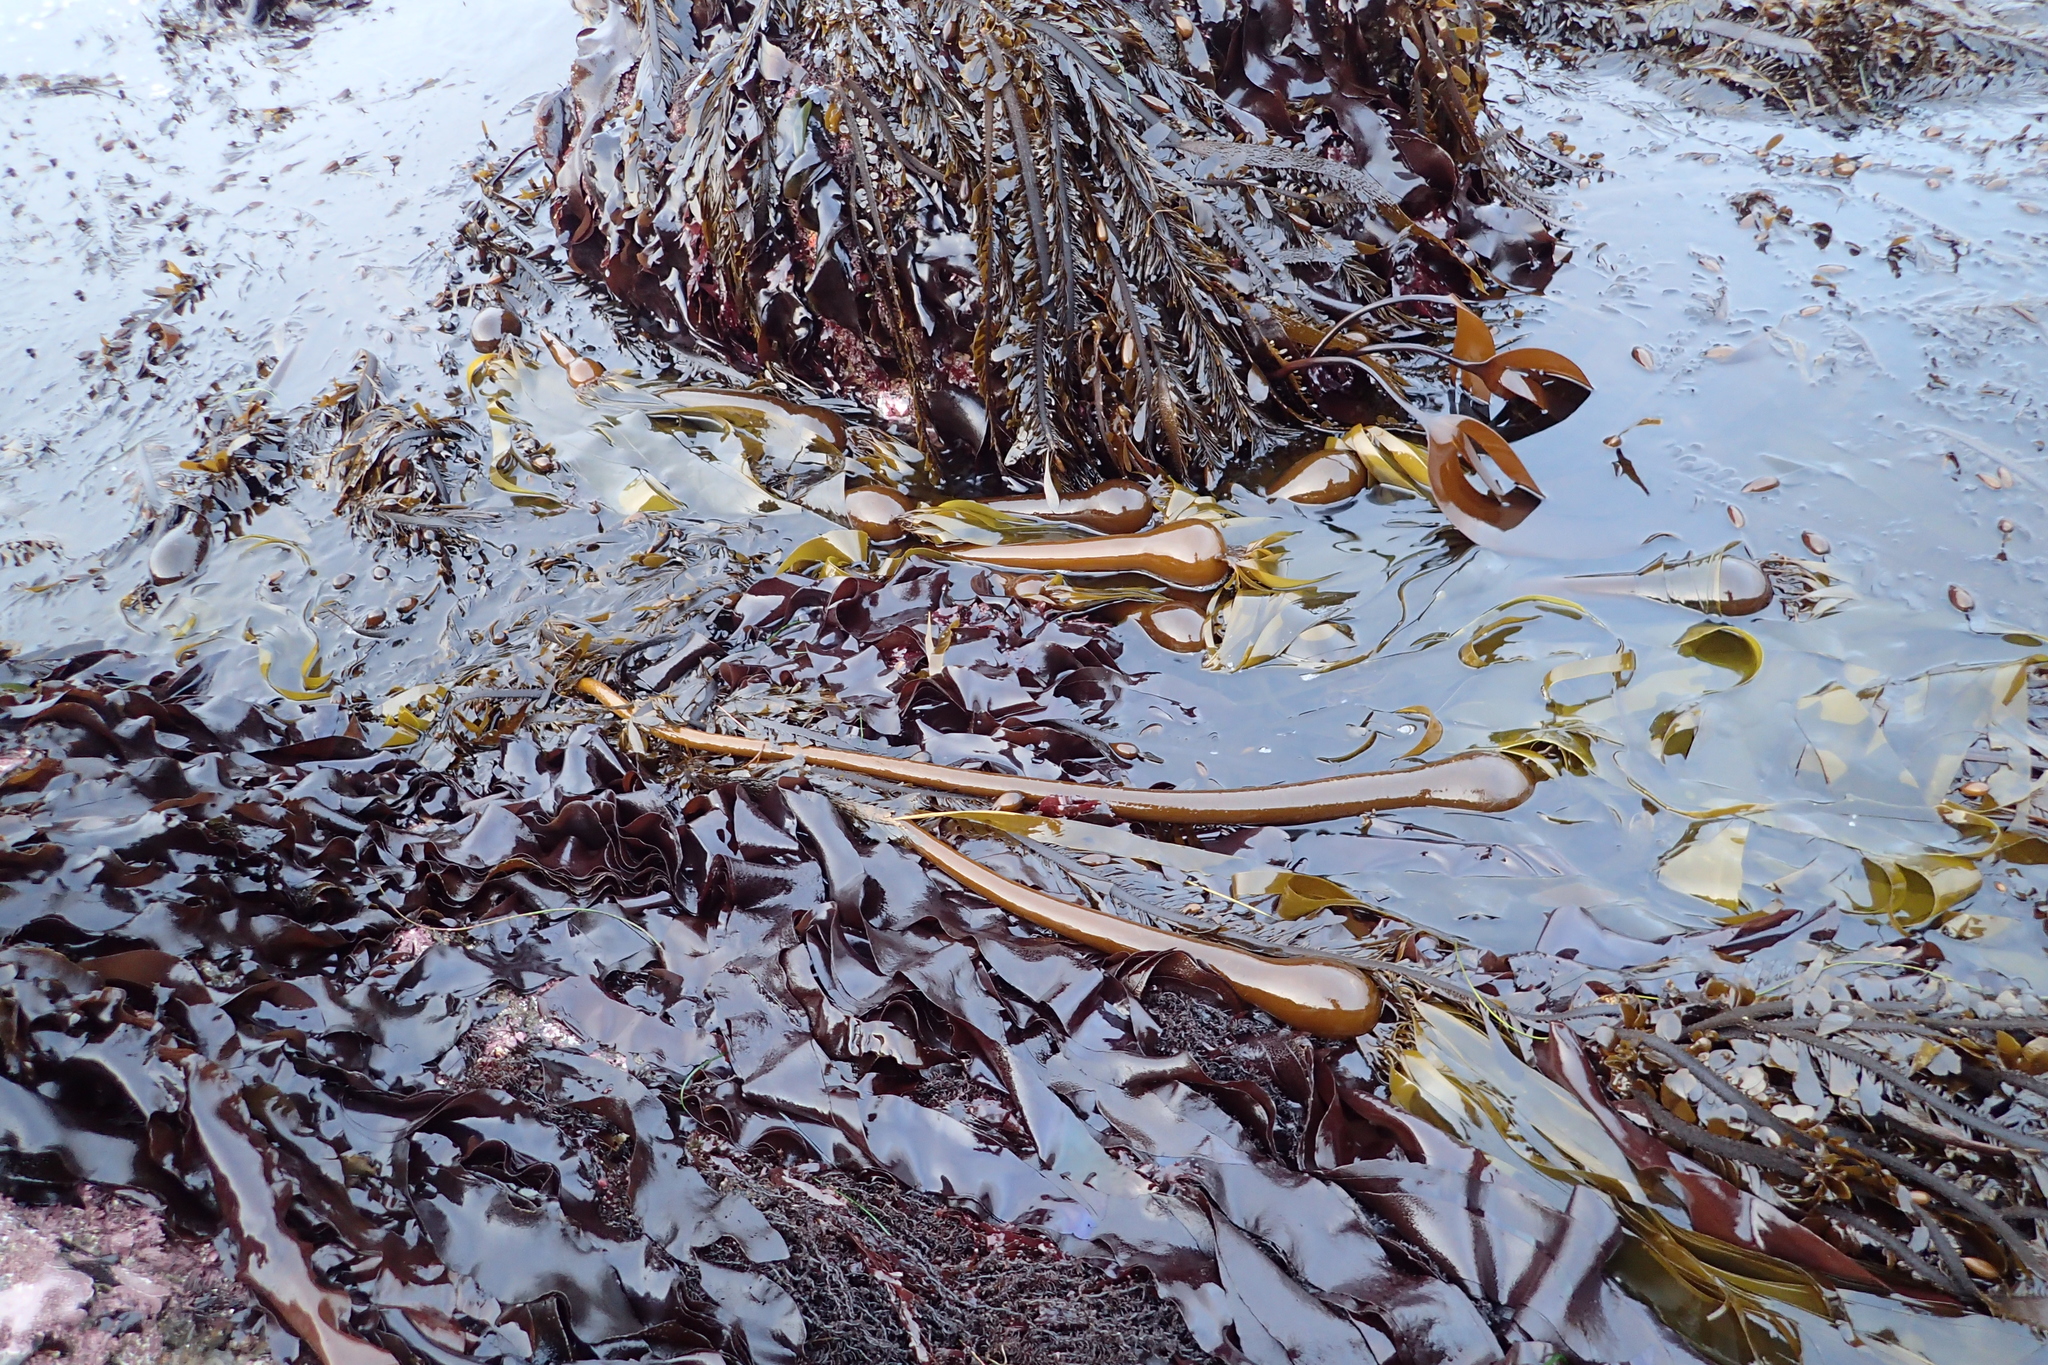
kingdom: Chromista
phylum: Ochrophyta
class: Phaeophyceae
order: Laminariales
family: Laminariaceae
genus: Nereocystis
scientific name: Nereocystis luetkeana
